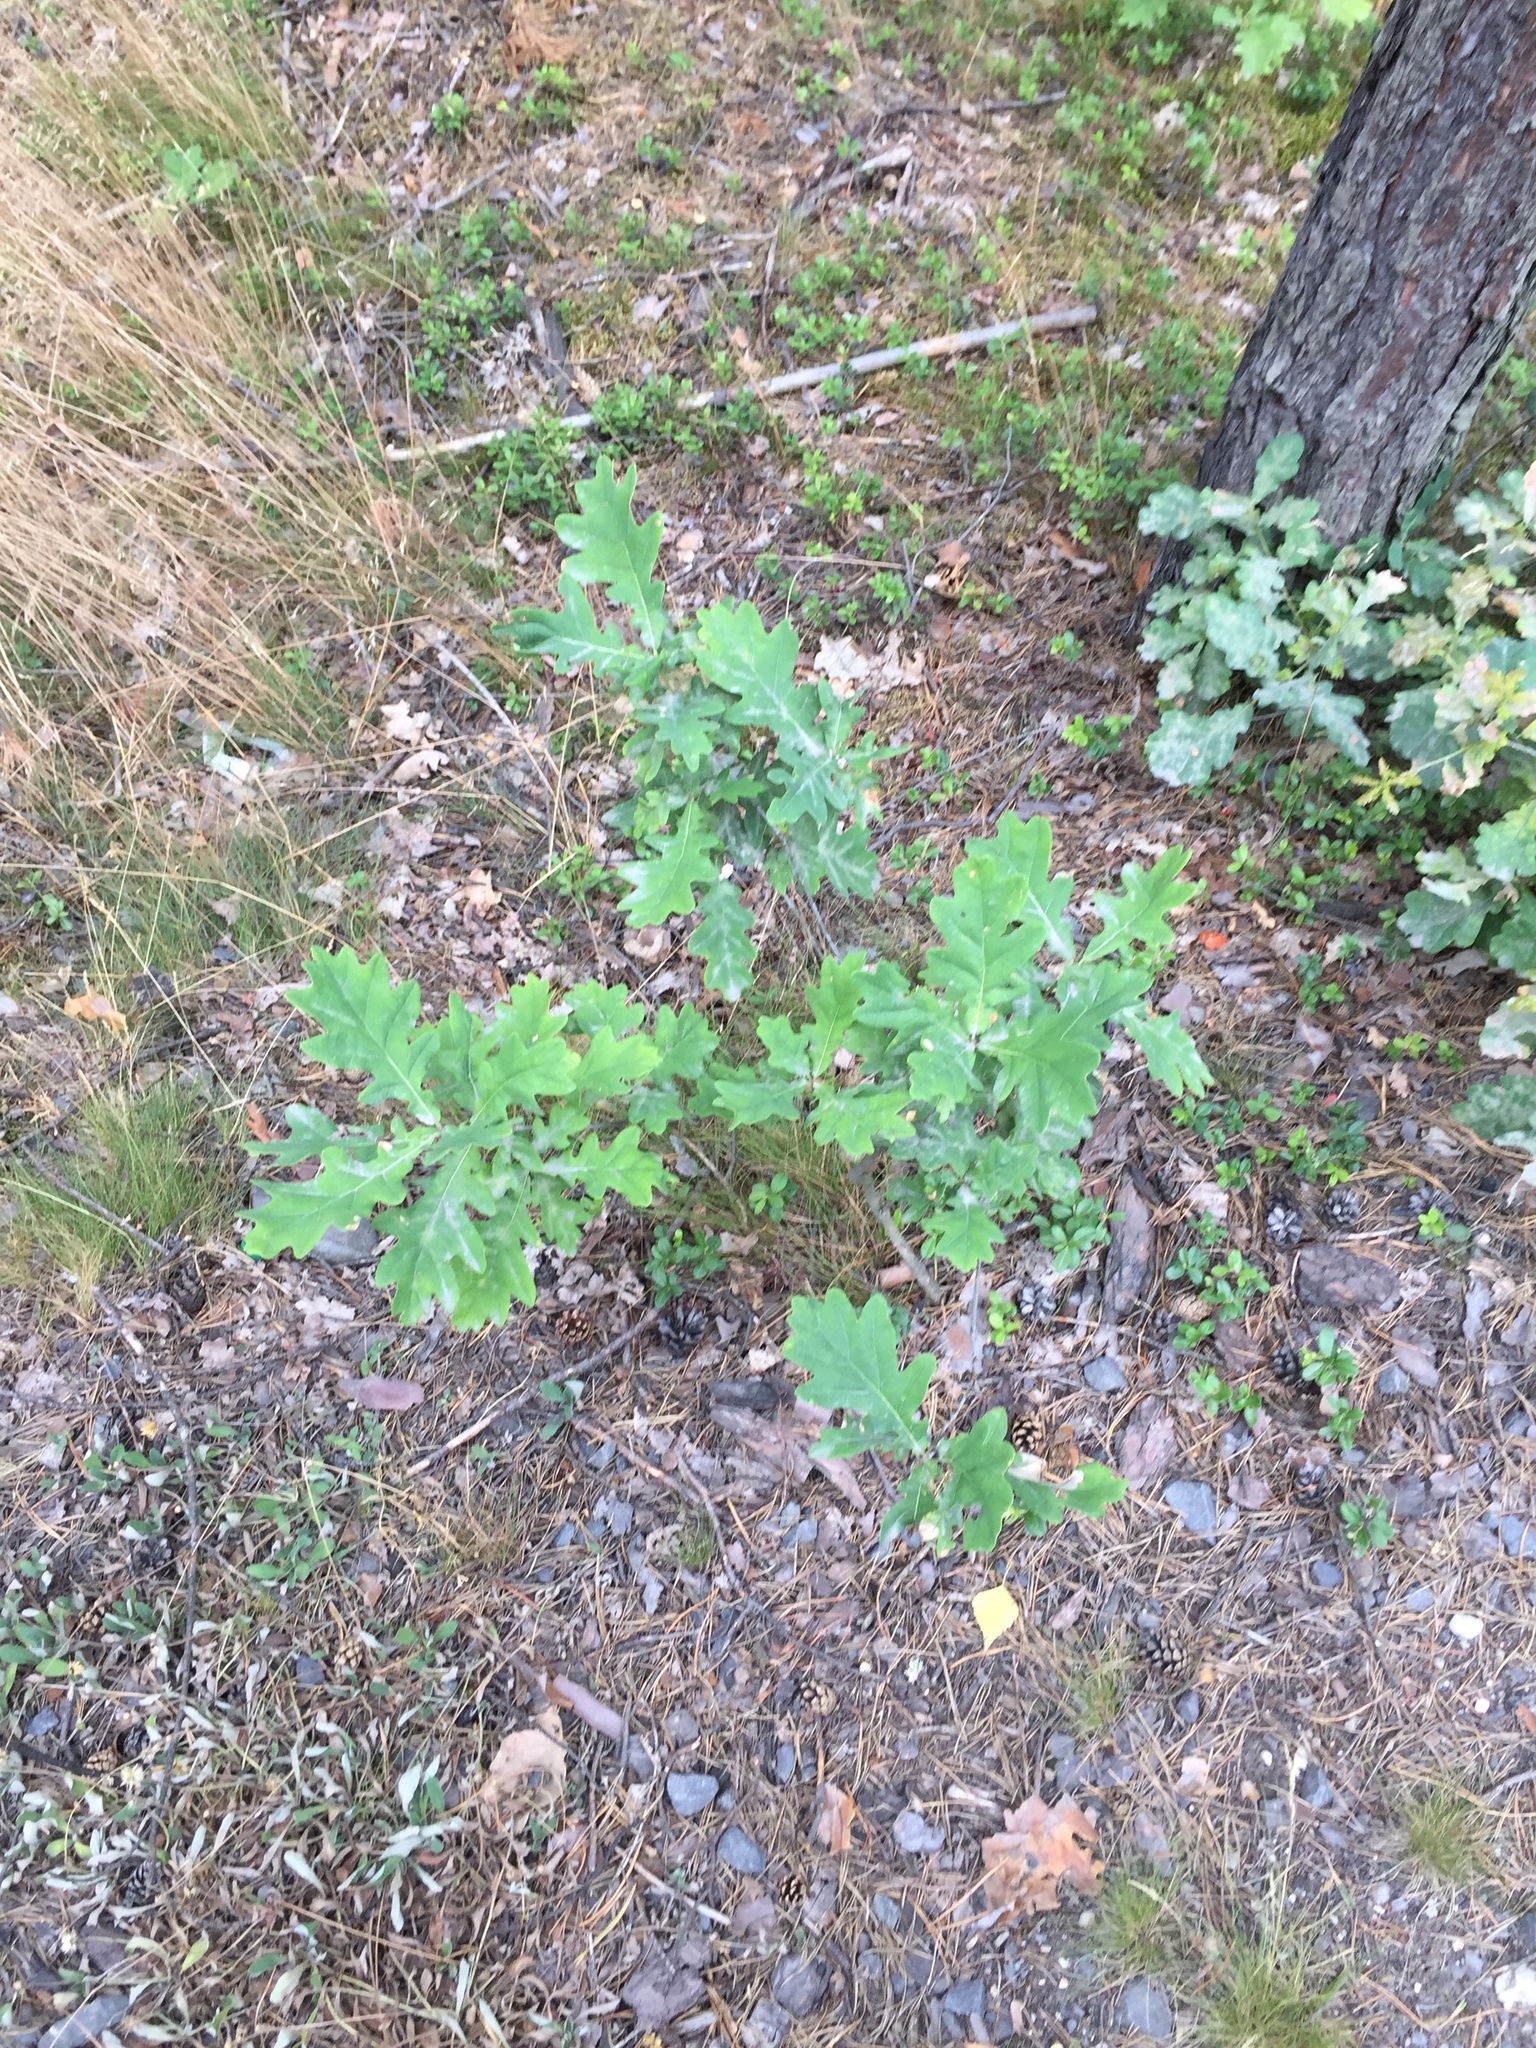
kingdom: Plantae
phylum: Tracheophyta
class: Magnoliopsida
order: Fagales
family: Fagaceae
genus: Quercus
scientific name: Quercus robur
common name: Pedunculate oak
